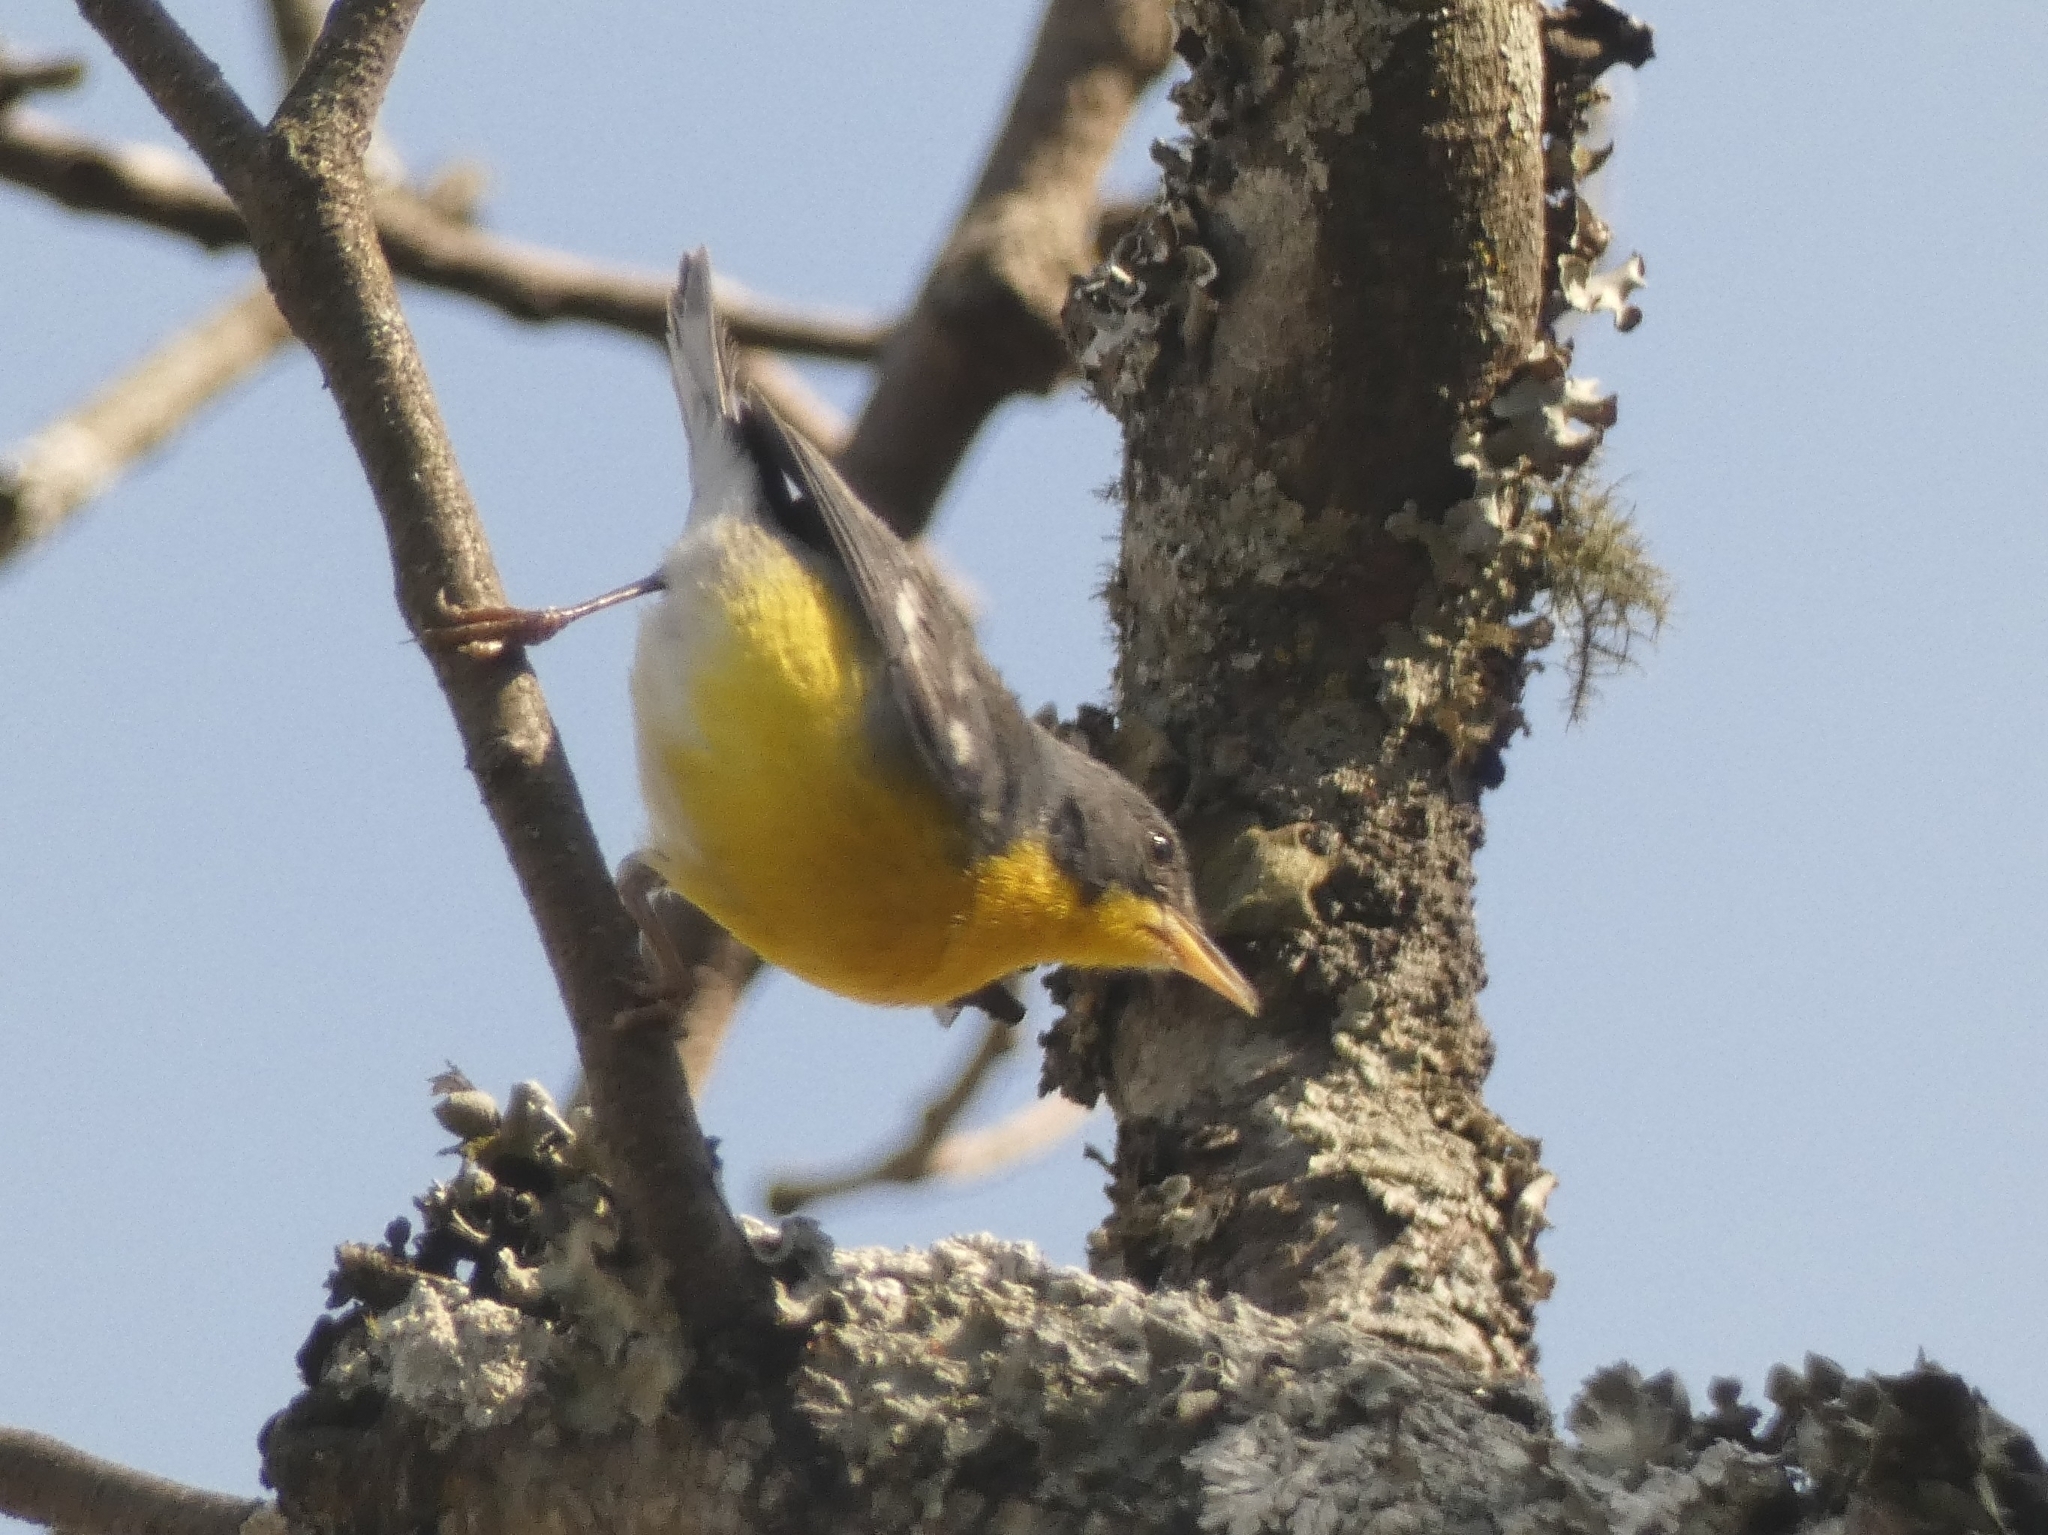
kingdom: Animalia
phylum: Chordata
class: Aves
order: Passeriformes
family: Parulidae
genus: Setophaga
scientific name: Setophaga pitiayumi
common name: Tropical parula
